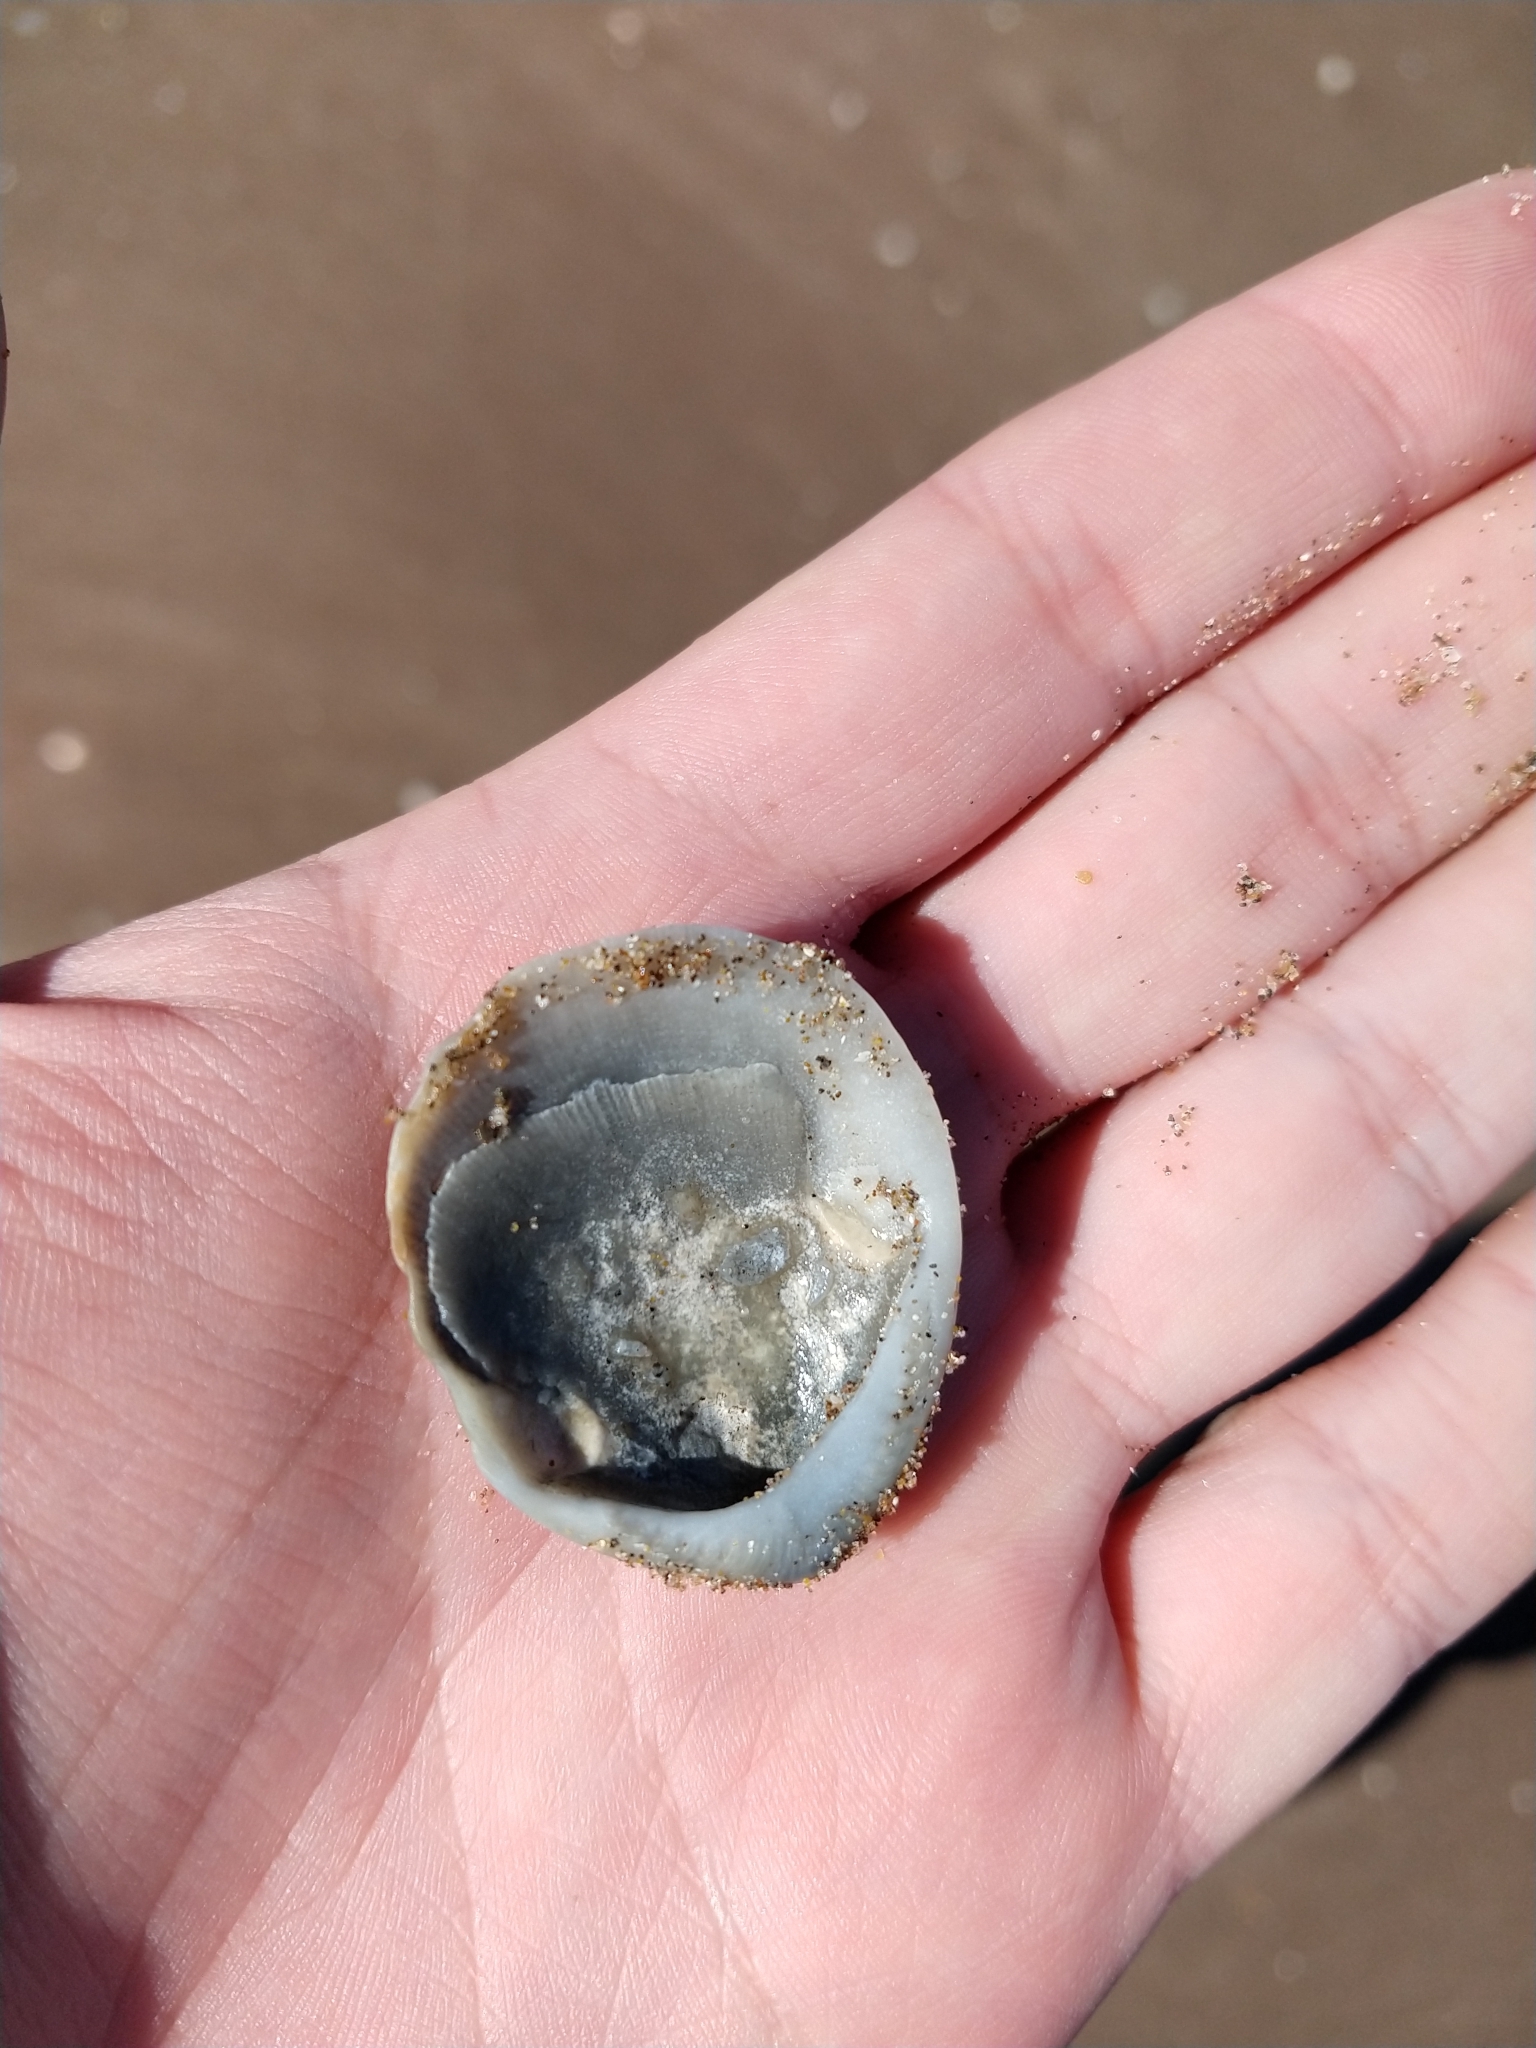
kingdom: Animalia
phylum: Mollusca
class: Bivalvia
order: Arcida
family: Glycymerididae
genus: Glycymeris
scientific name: Glycymeris longior
